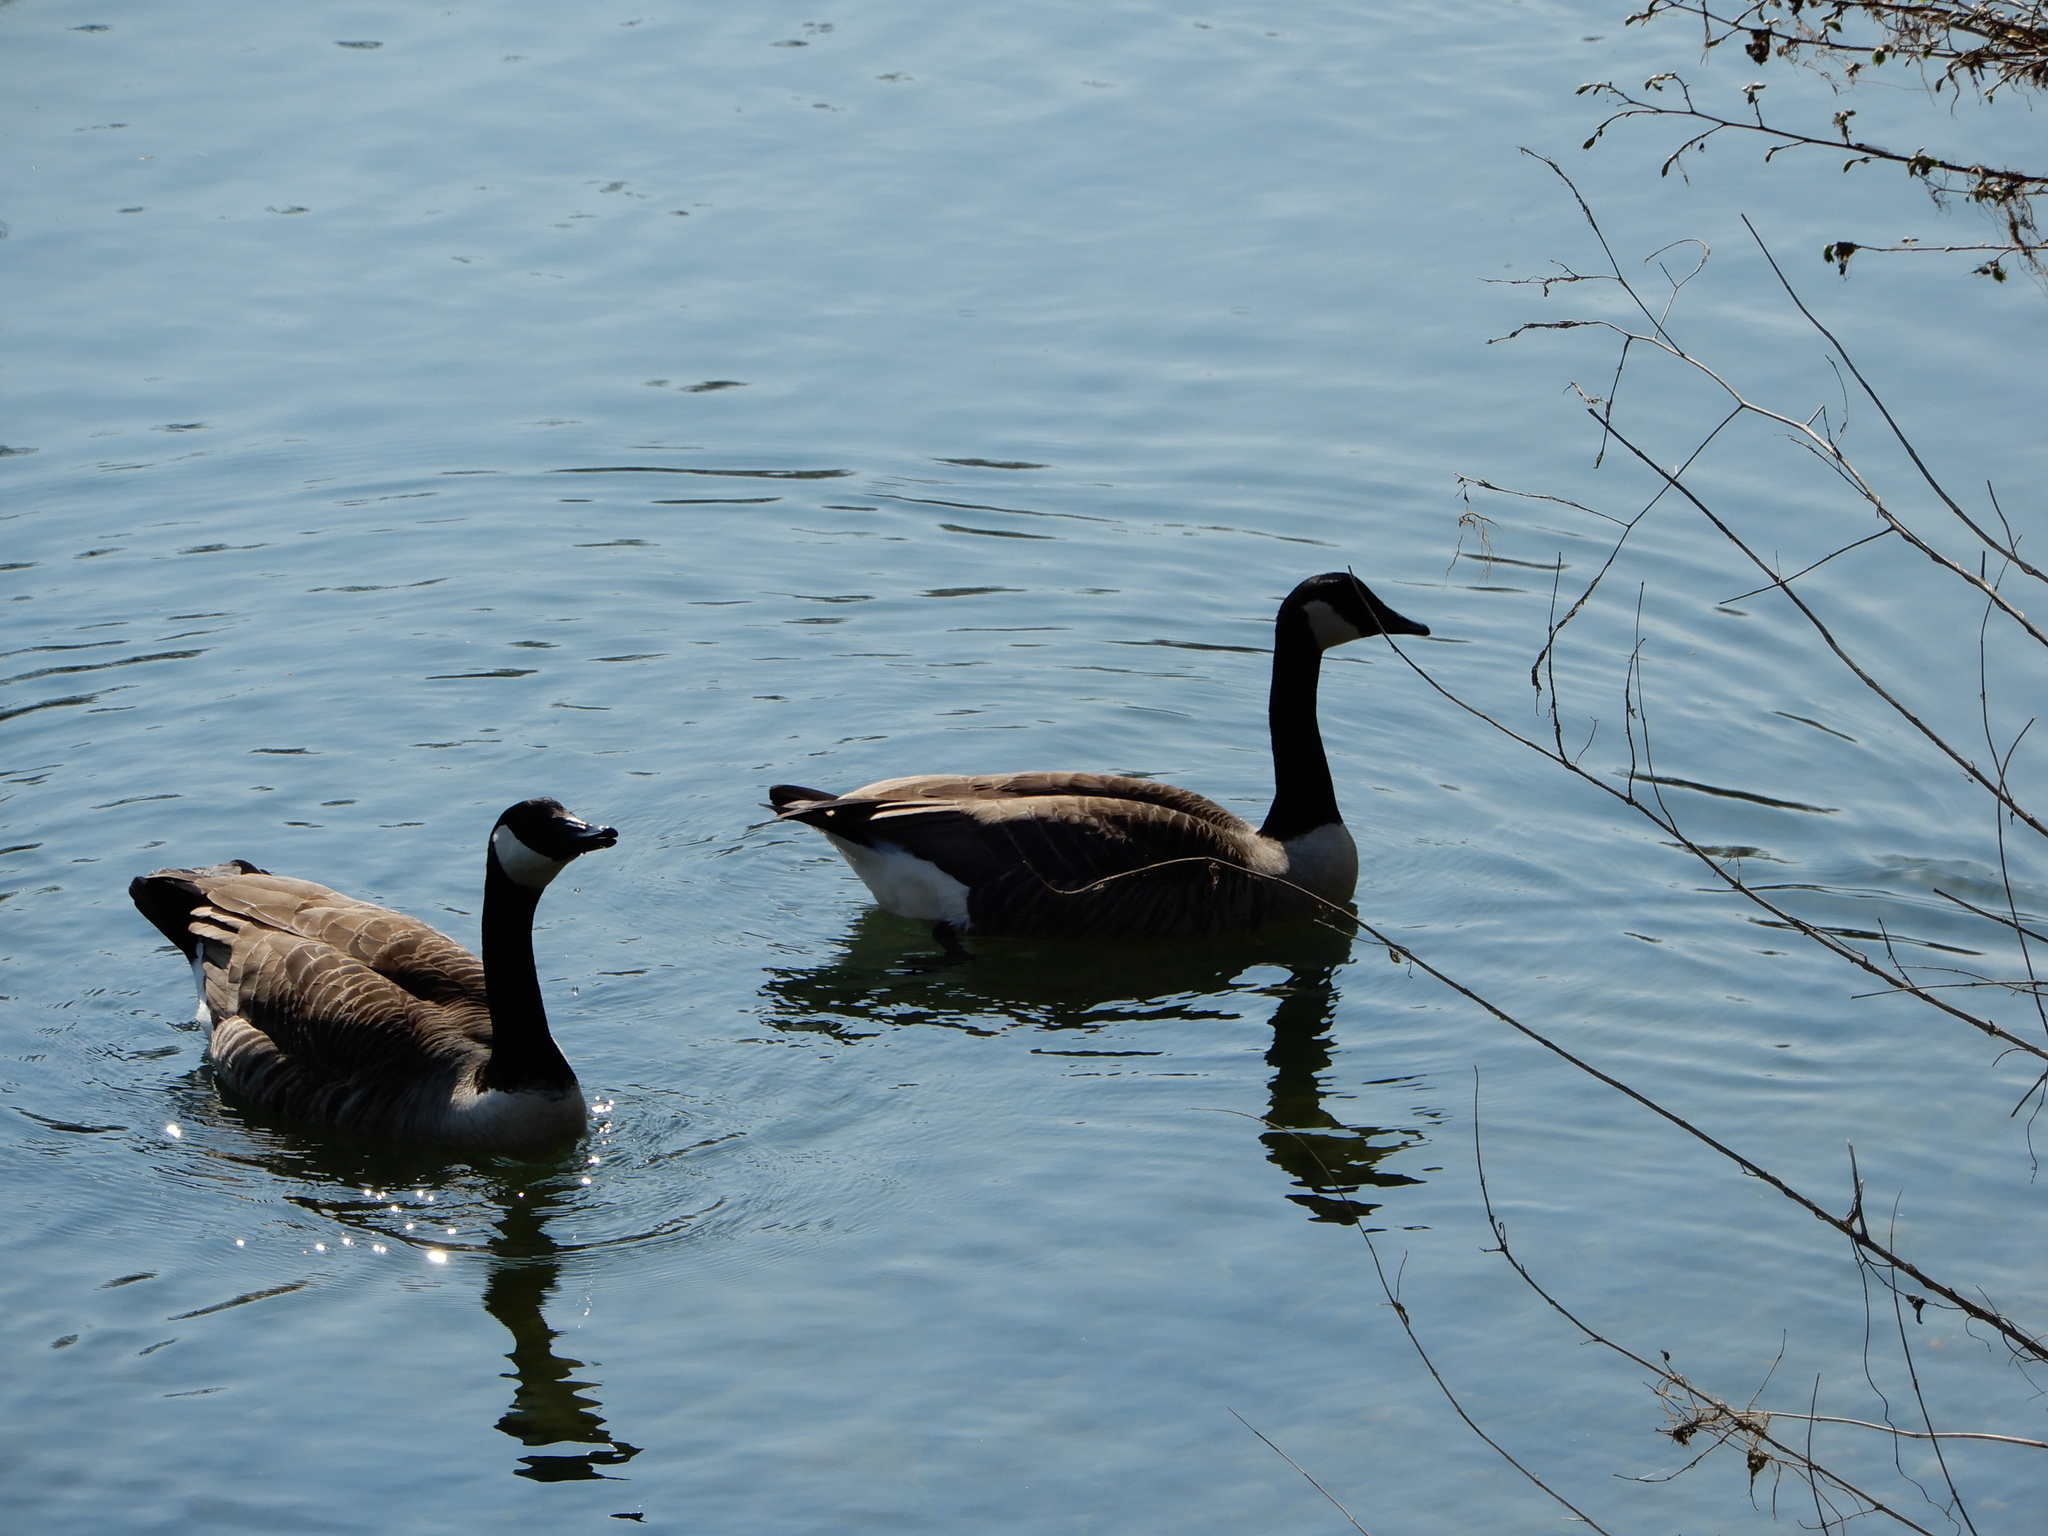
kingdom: Animalia
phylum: Chordata
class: Aves
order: Anseriformes
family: Anatidae
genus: Branta
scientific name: Branta canadensis
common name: Canada goose
